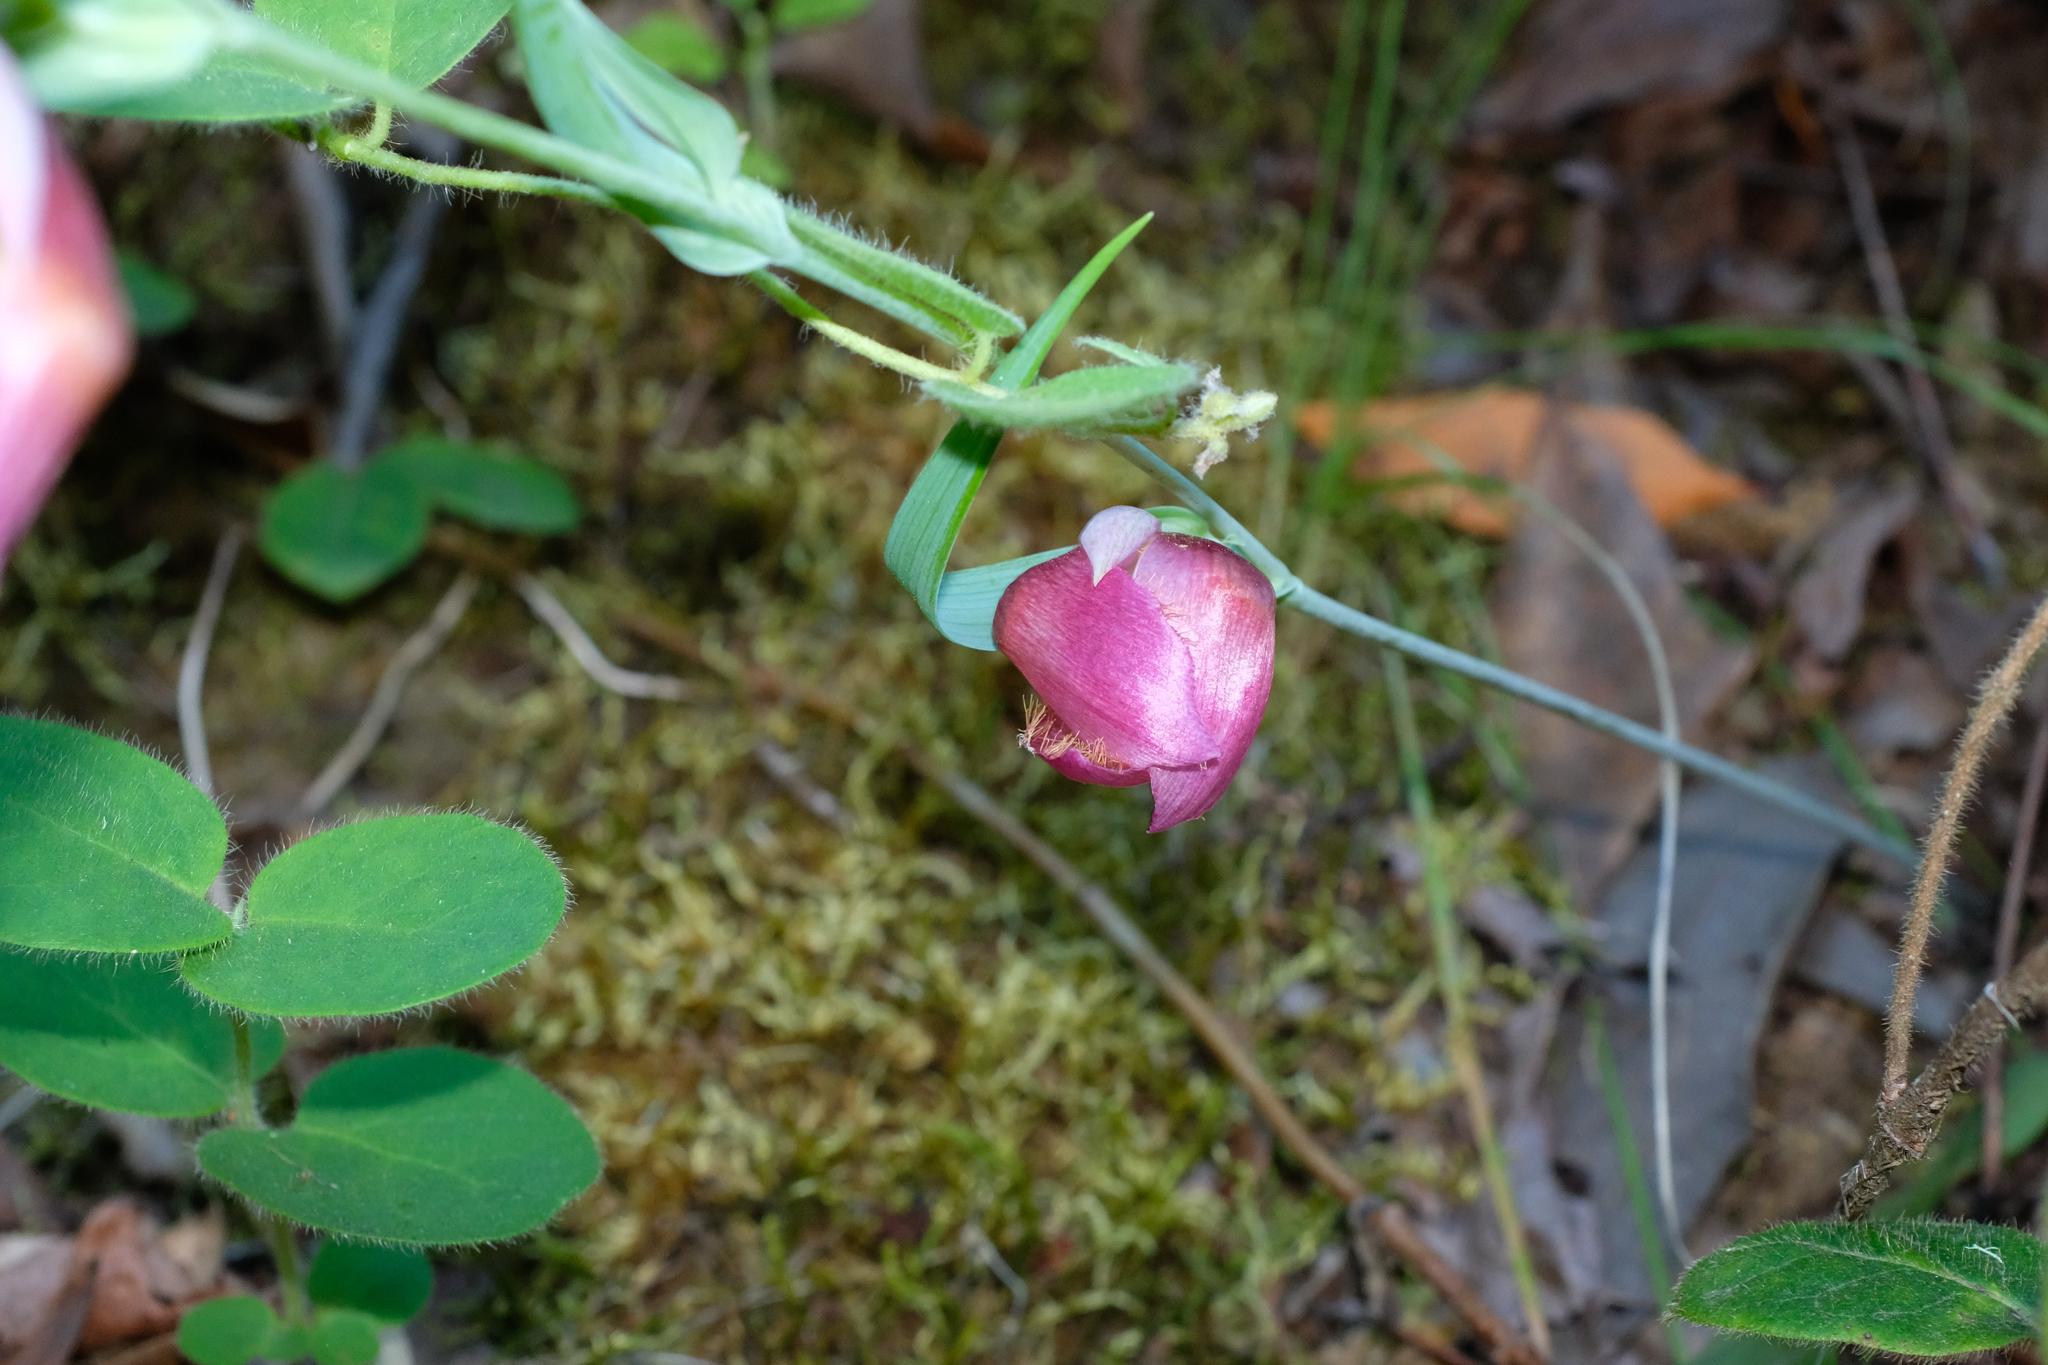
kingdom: Plantae
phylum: Tracheophyta
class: Liliopsida
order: Liliales
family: Liliaceae
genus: Calochortus
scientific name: Calochortus albus
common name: Fairy-lantern
